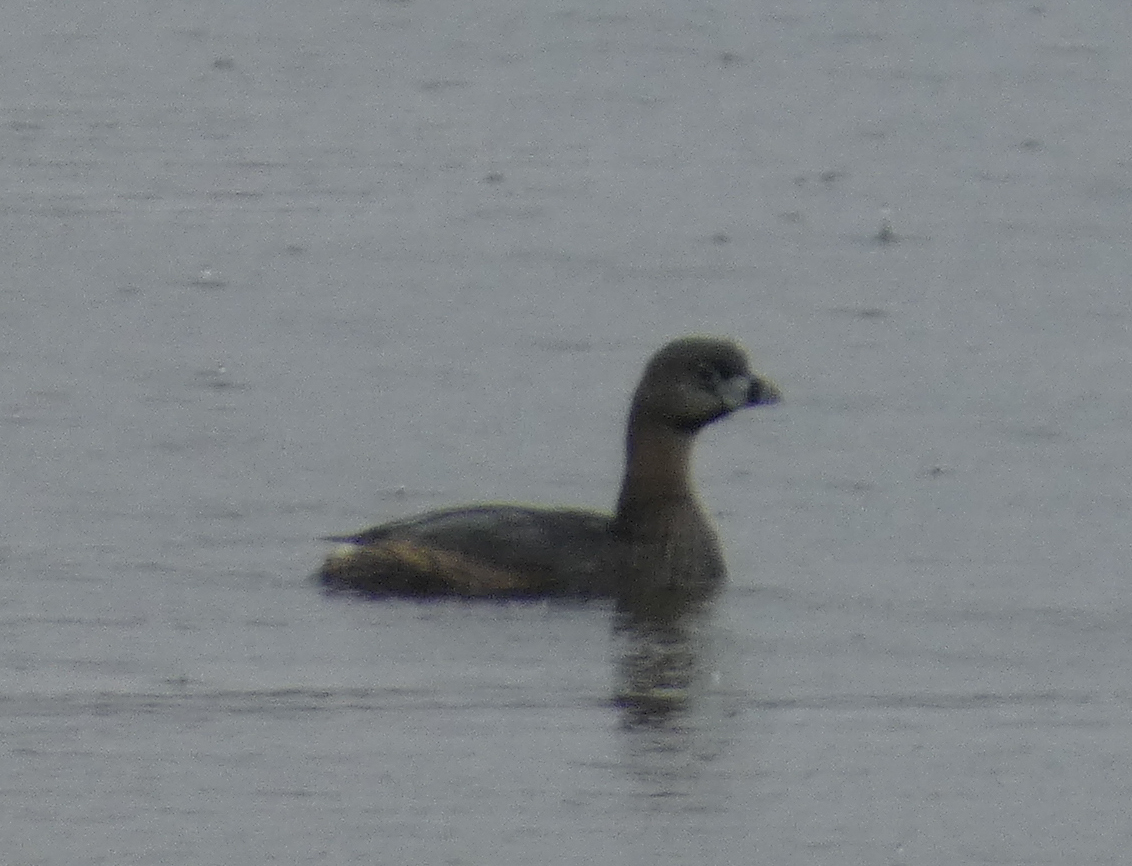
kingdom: Animalia
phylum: Chordata
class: Aves
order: Podicipediformes
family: Podicipedidae
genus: Podilymbus
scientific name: Podilymbus podiceps
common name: Pied-billed grebe
